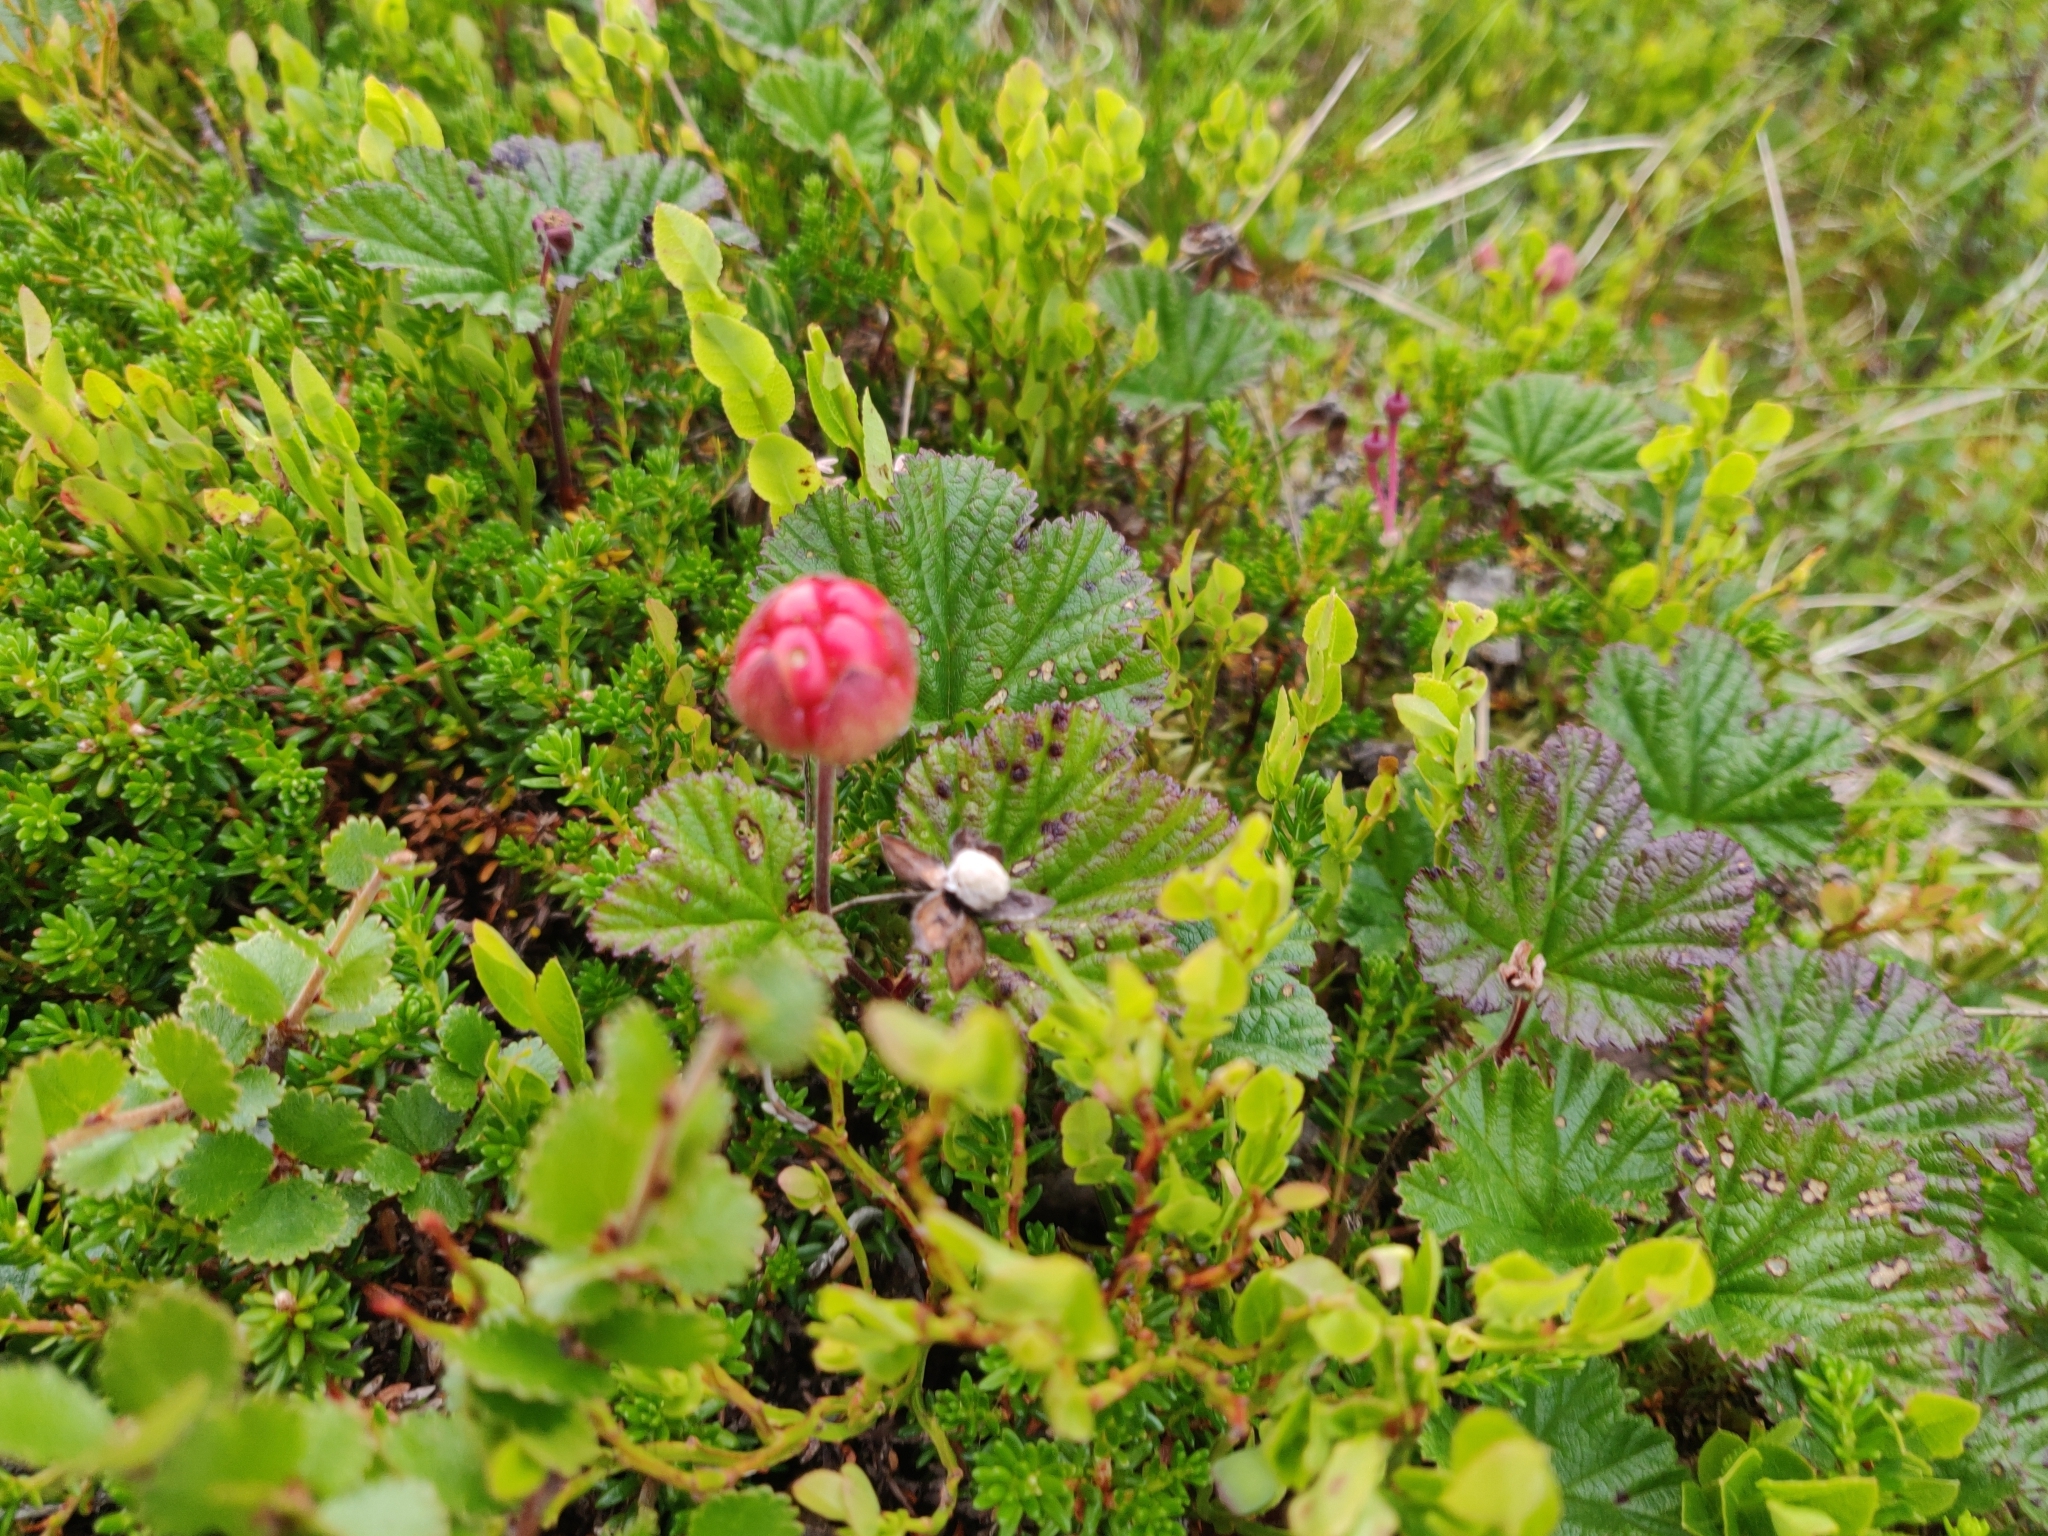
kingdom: Plantae
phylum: Tracheophyta
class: Magnoliopsida
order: Rosales
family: Rosaceae
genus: Rubus
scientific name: Rubus chamaemorus
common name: Cloudberry
